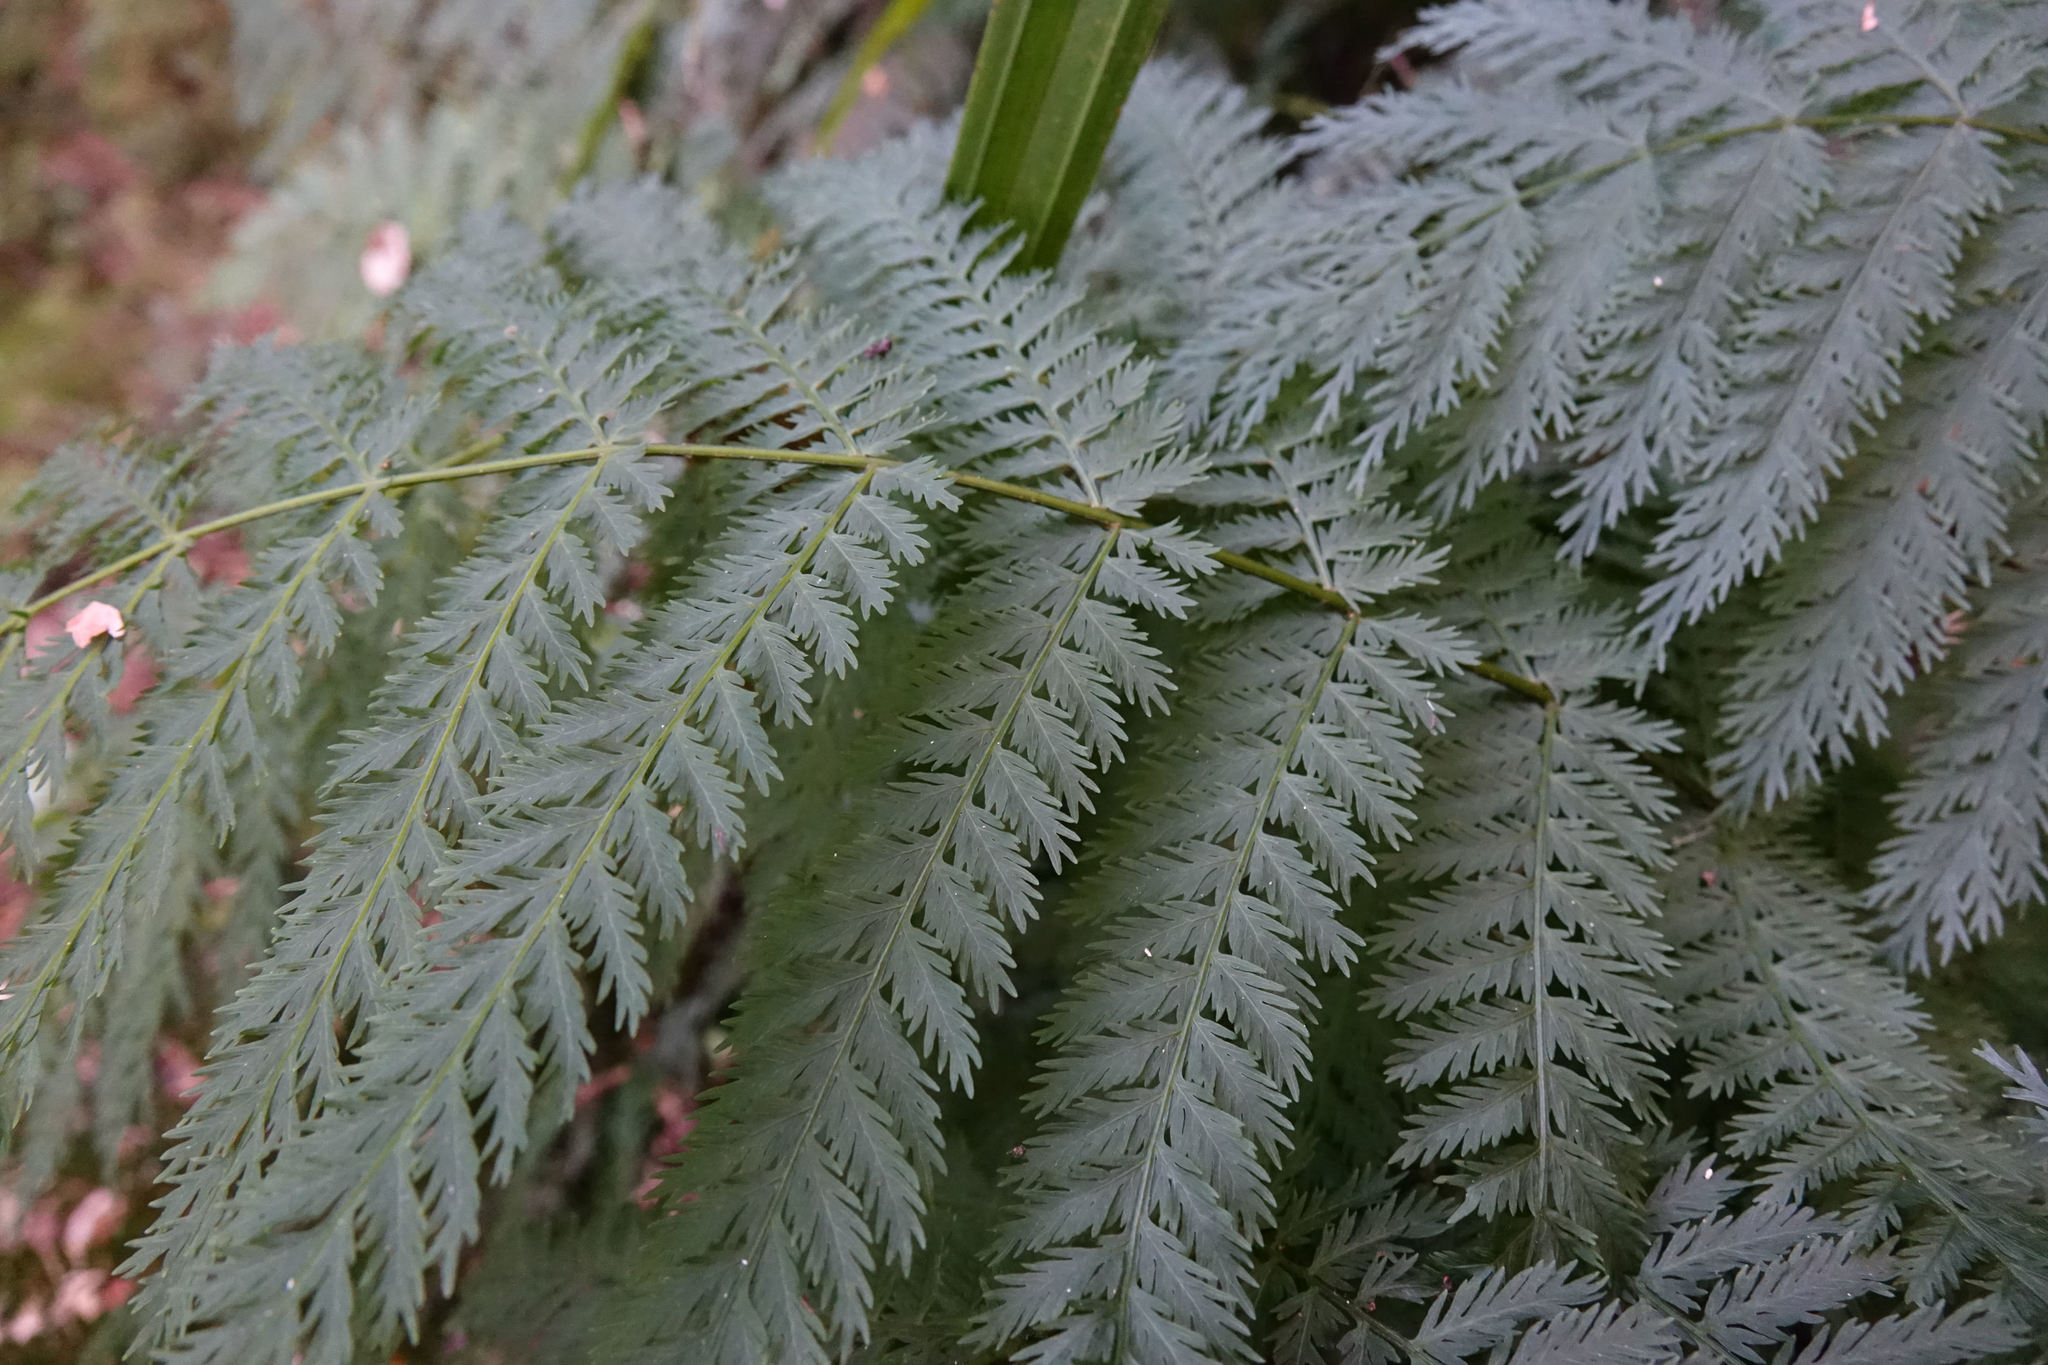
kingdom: Plantae
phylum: Tracheophyta
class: Polypodiopsida
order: Osmundales
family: Osmundaceae
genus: Leptopteris
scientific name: Leptopteris hymenophylloides
